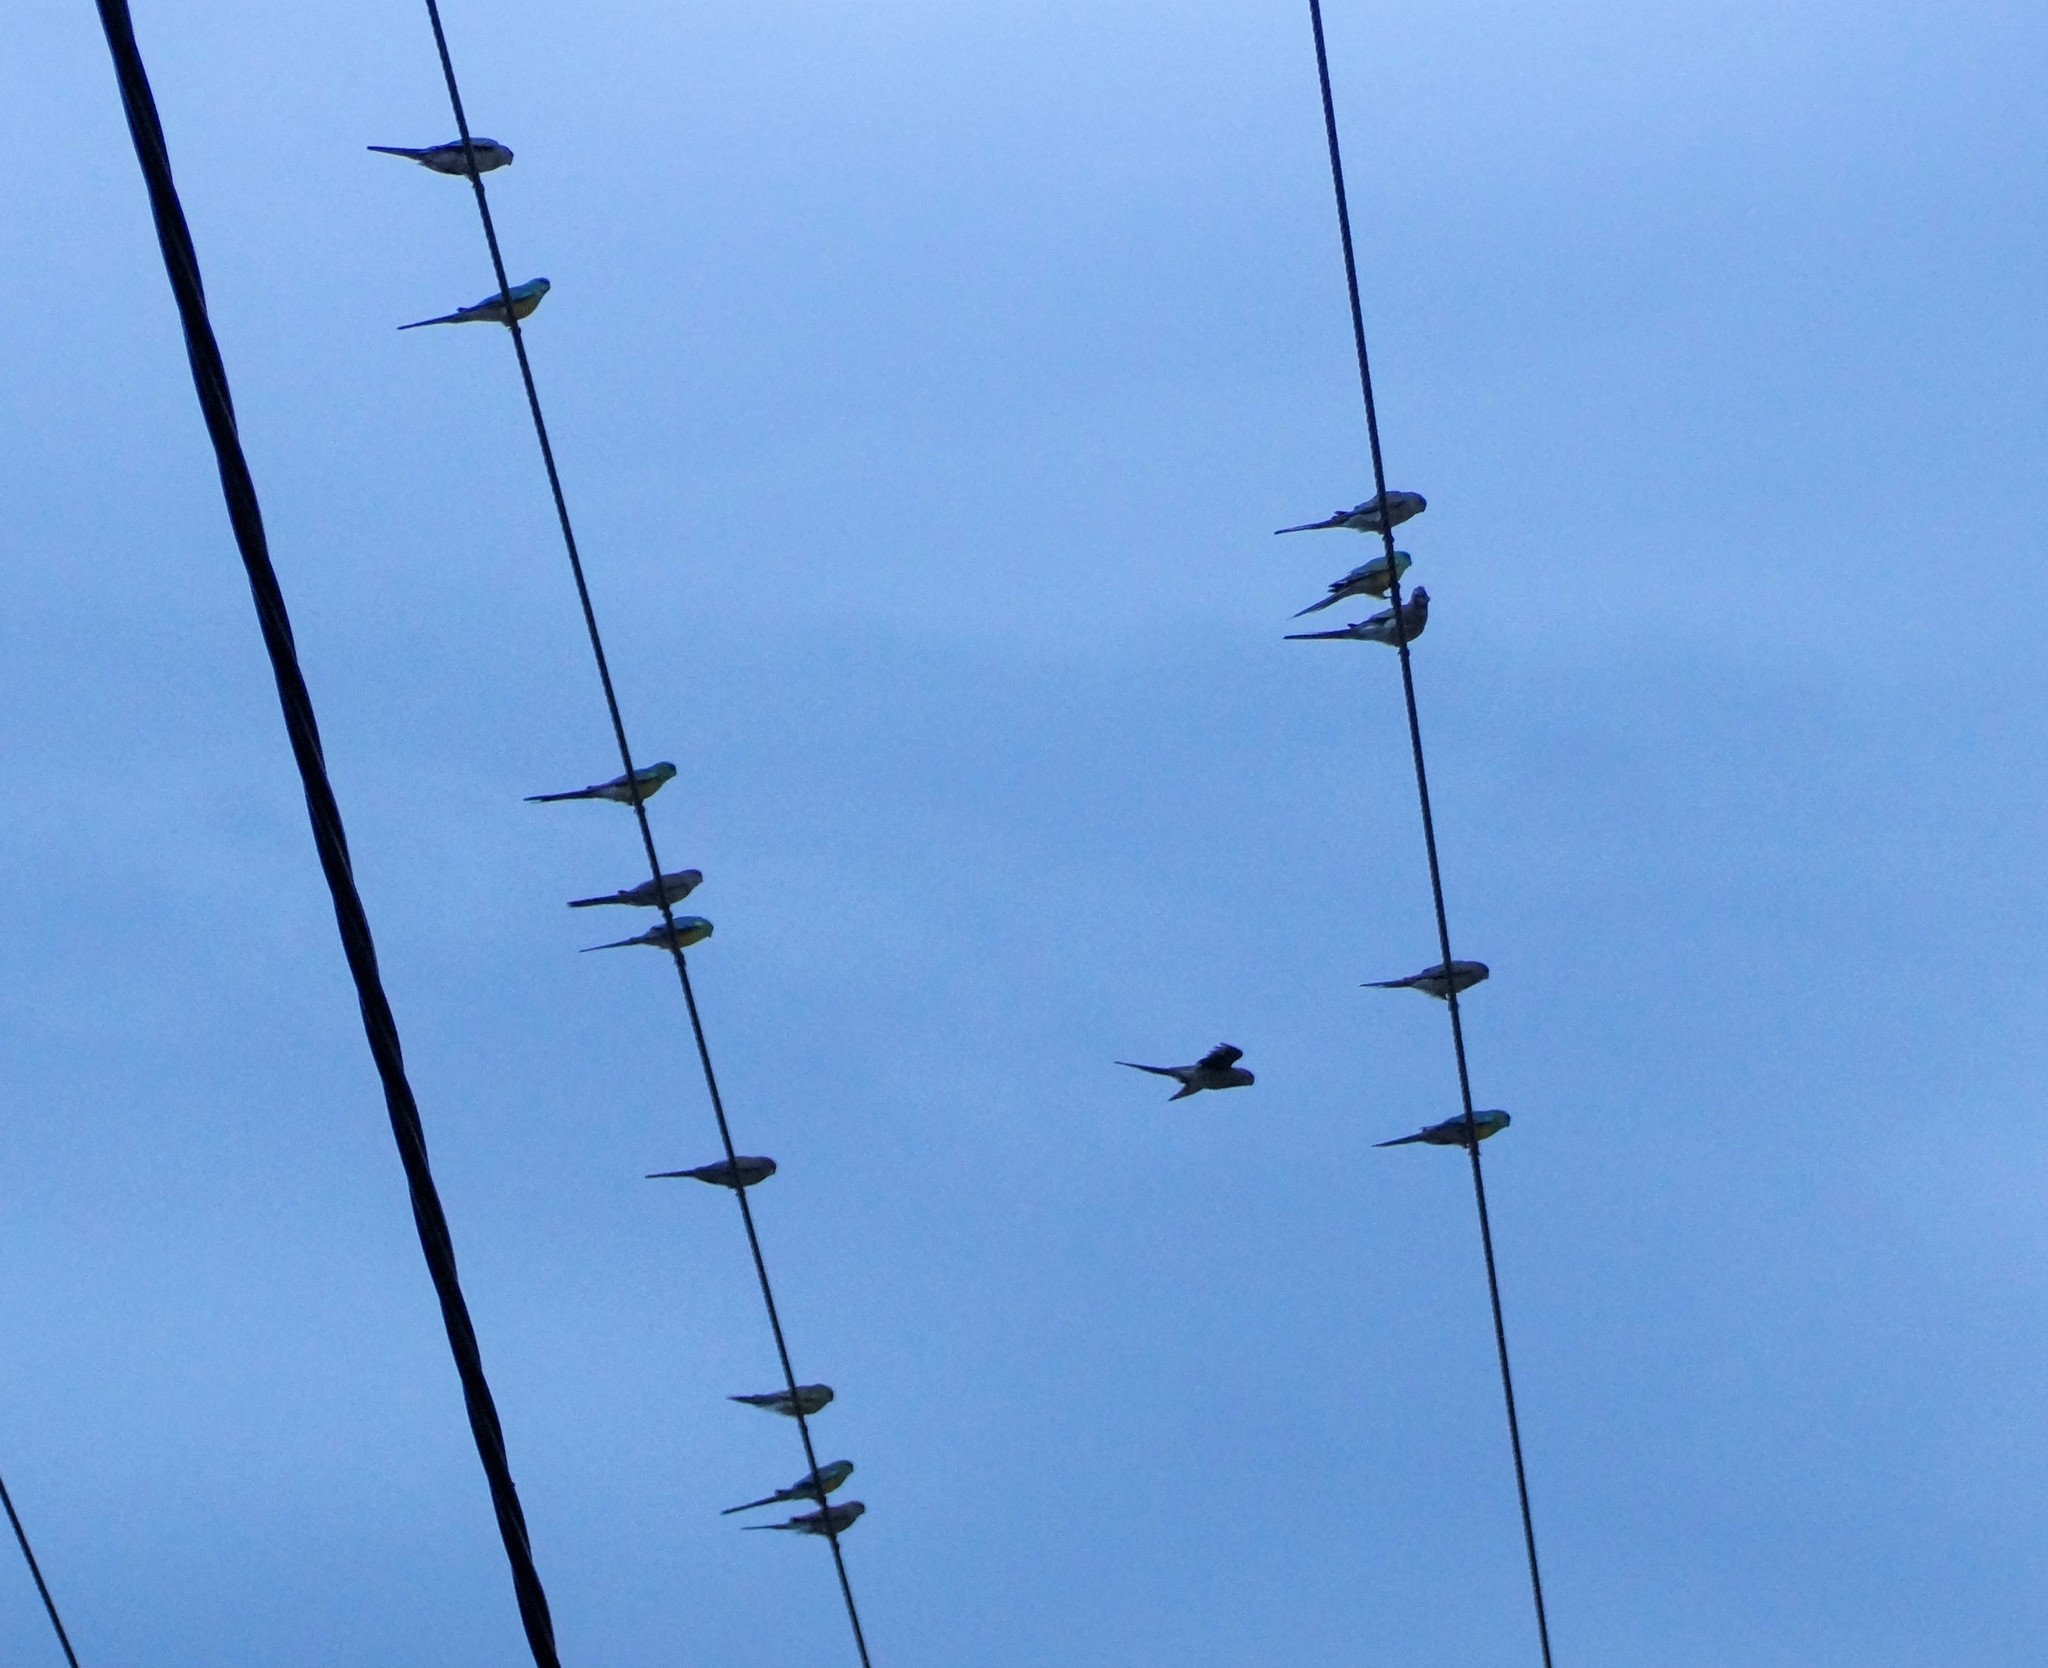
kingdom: Animalia
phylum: Chordata
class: Aves
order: Psittaciformes
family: Psittacidae
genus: Psephotus
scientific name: Psephotus haematonotus
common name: Red-rumped parrot
